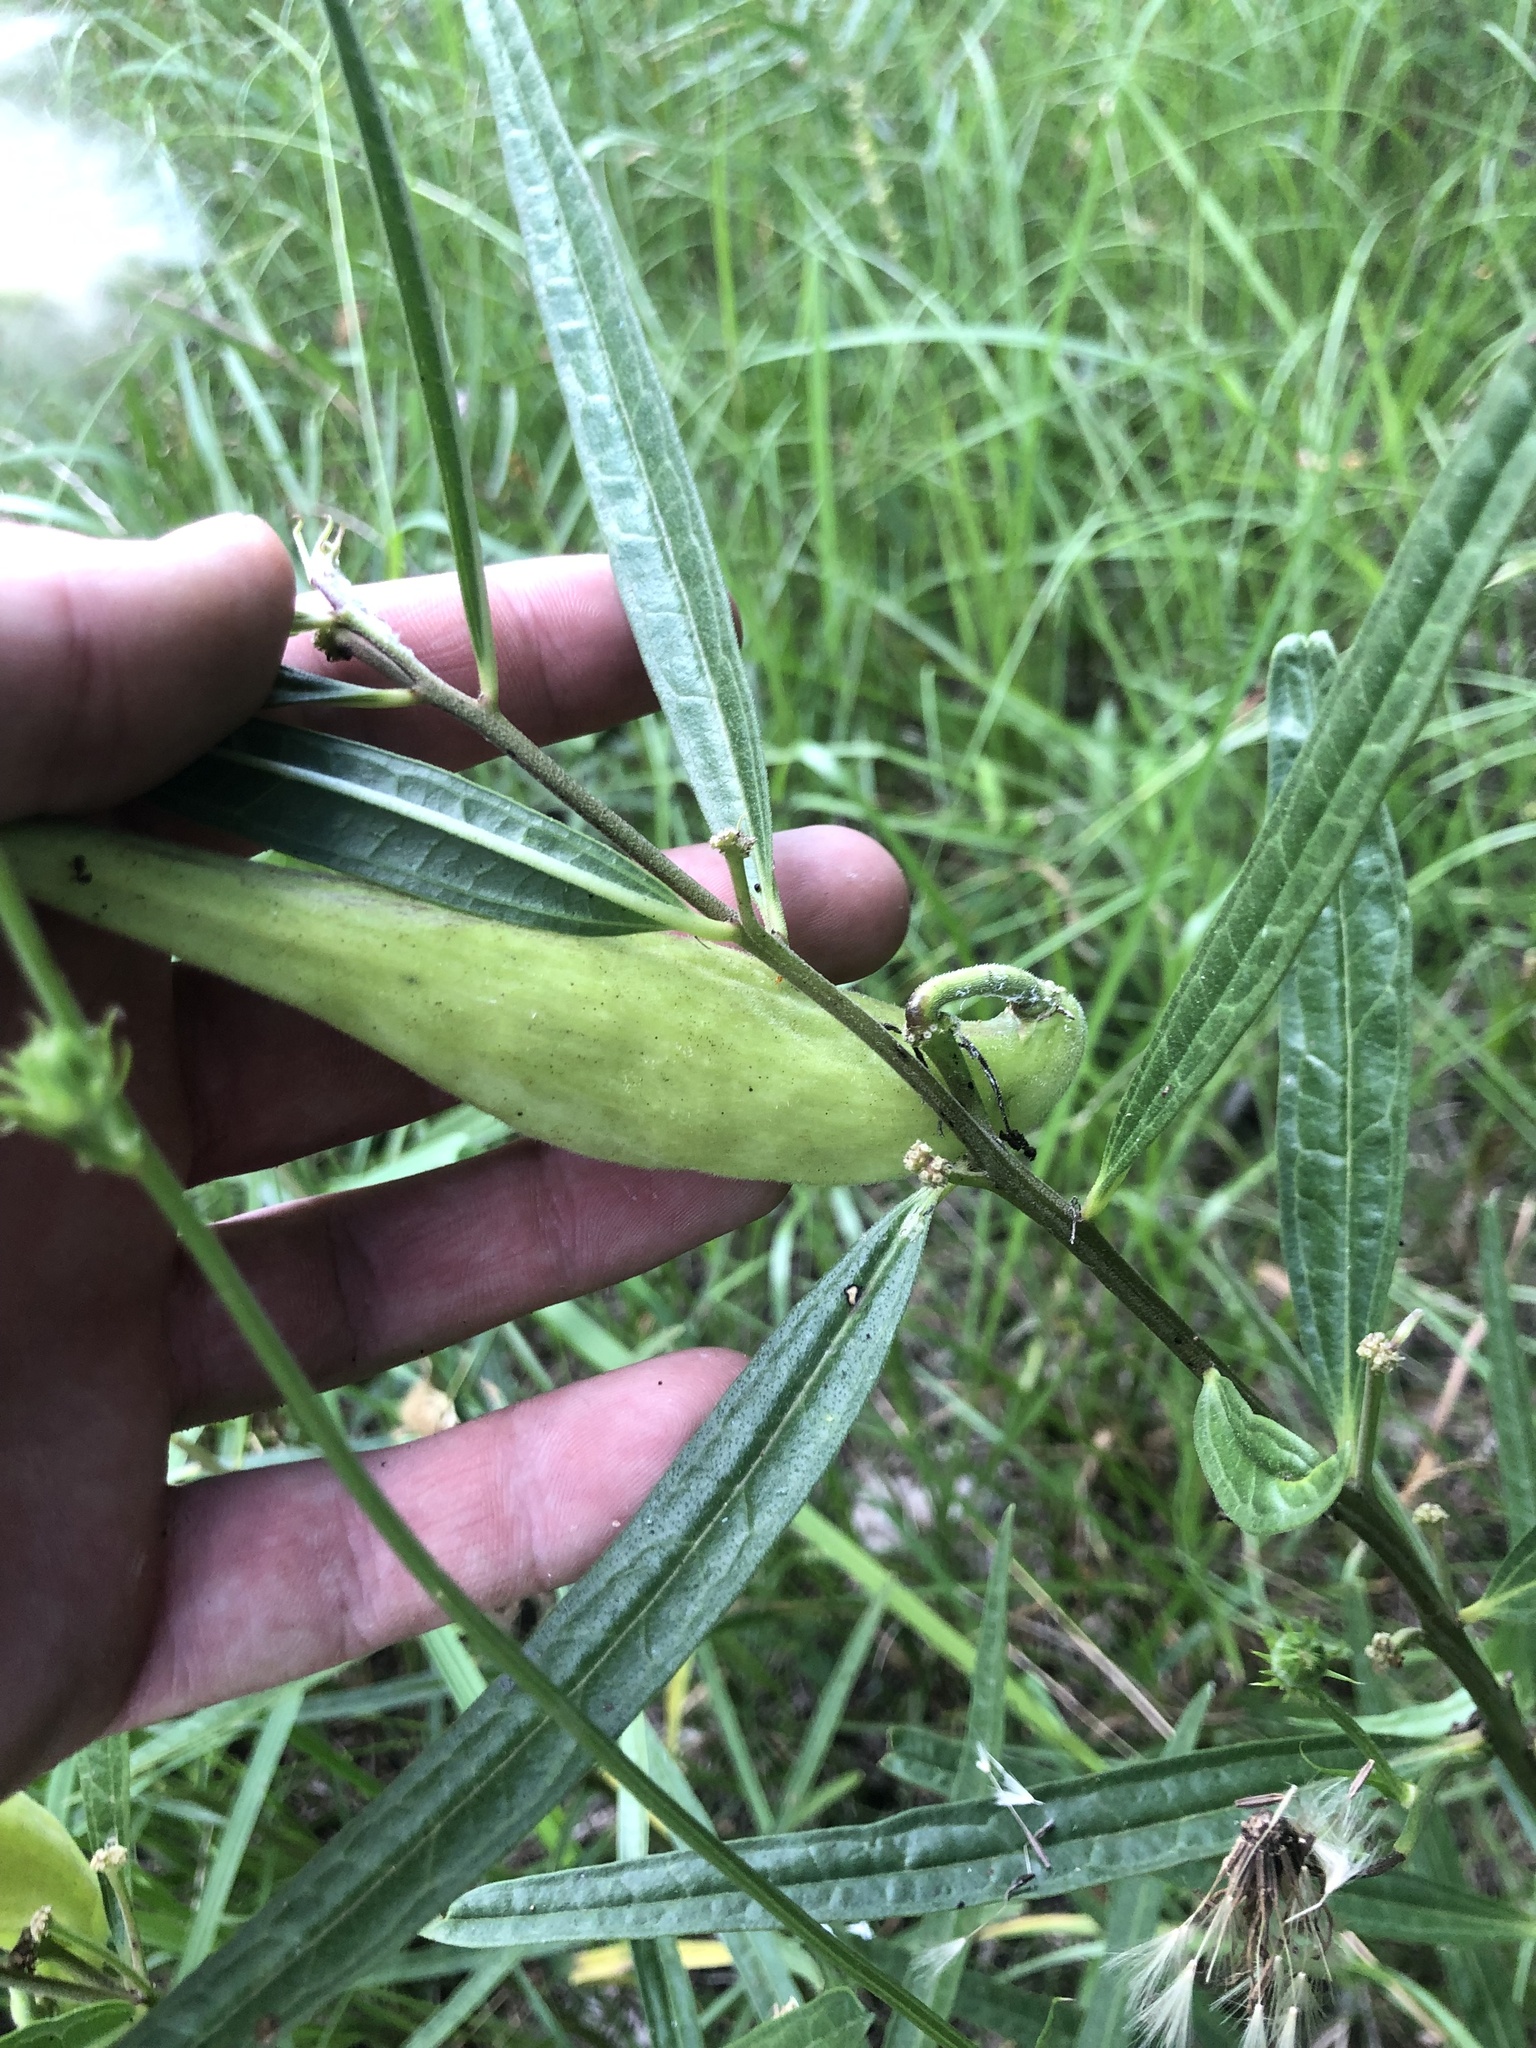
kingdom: Plantae
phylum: Tracheophyta
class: Magnoliopsida
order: Gentianales
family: Apocynaceae
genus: Asclepias
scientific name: Asclepias hirtella
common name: Prairie milkweed
